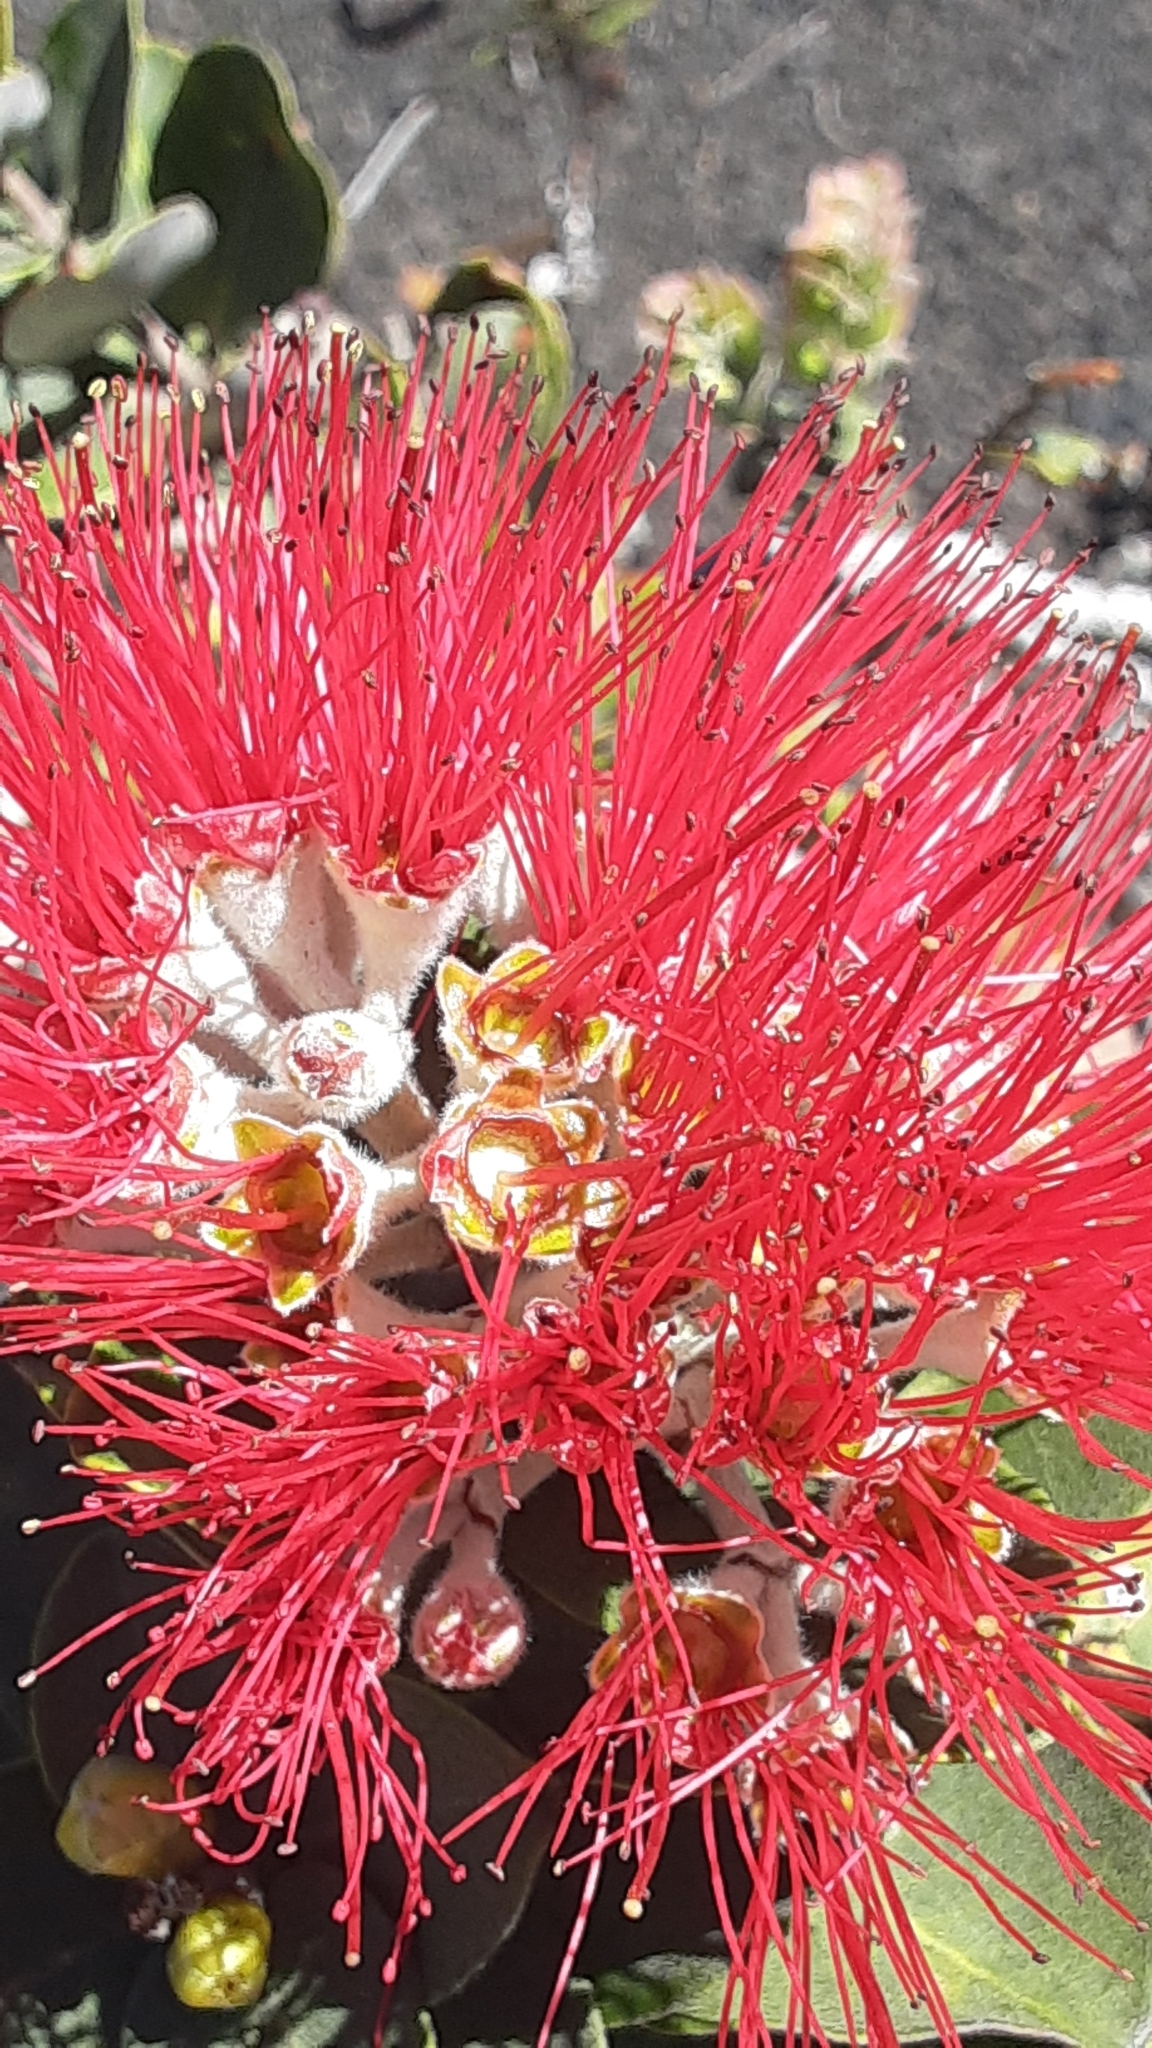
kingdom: Plantae
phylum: Tracheophyta
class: Magnoliopsida
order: Myrtales
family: Myrtaceae
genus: Metrosideros
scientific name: Metrosideros polymorpha
